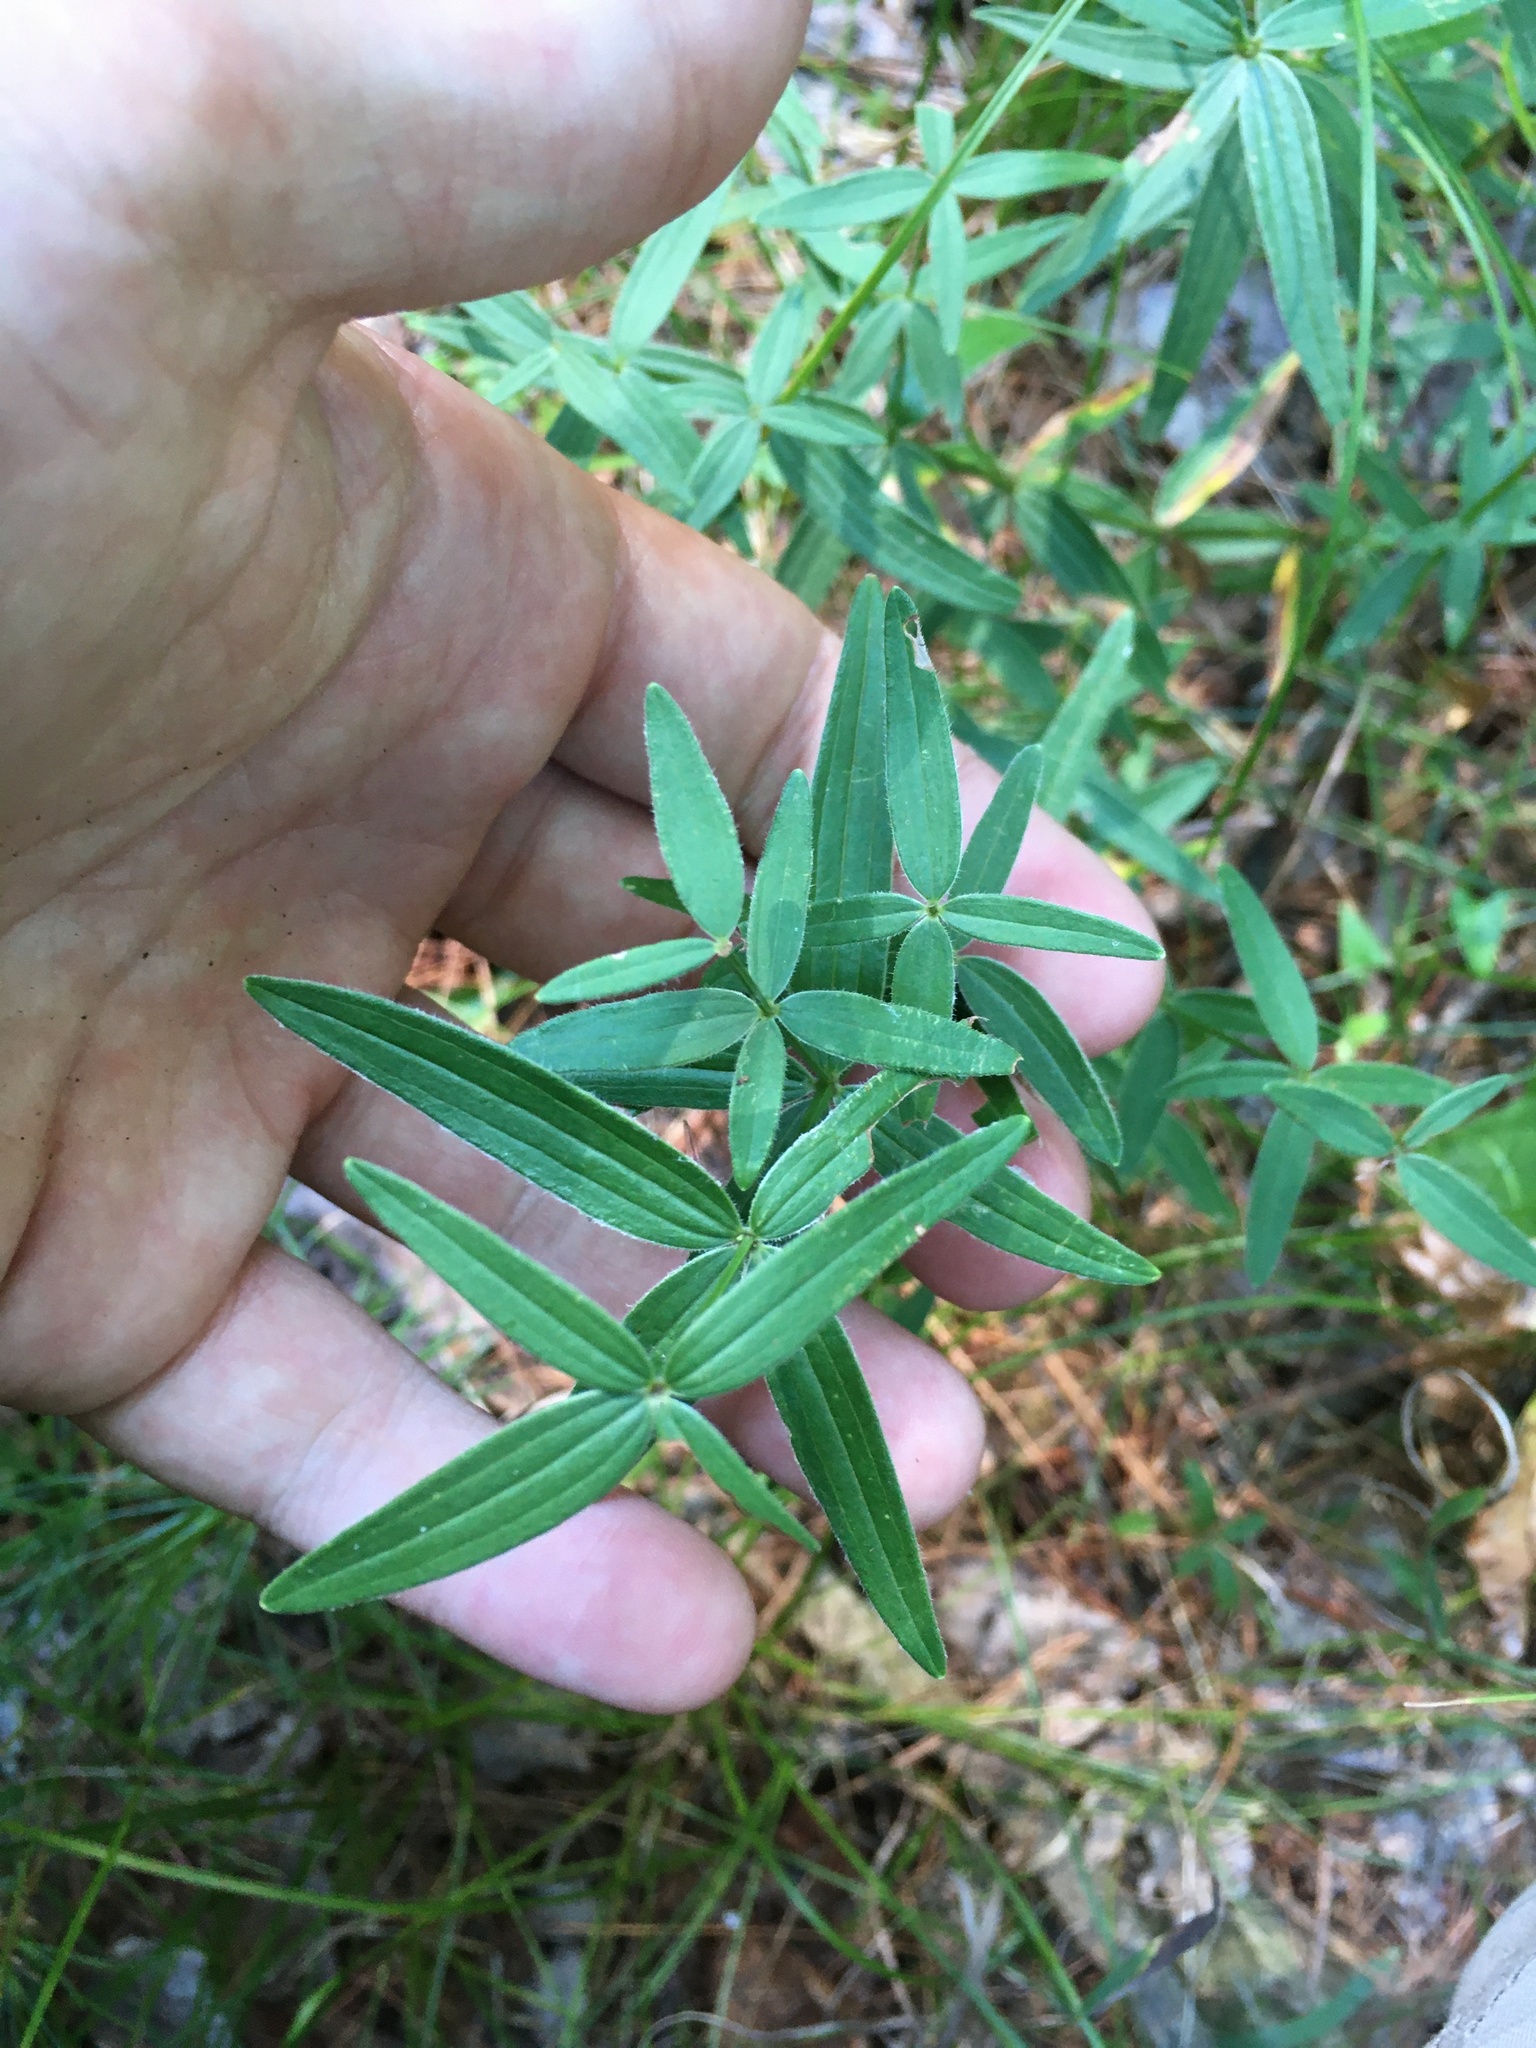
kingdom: Plantae
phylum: Tracheophyta
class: Magnoliopsida
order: Gentianales
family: Rubiaceae
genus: Galium
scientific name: Galium boreale
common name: Northern bedstraw
